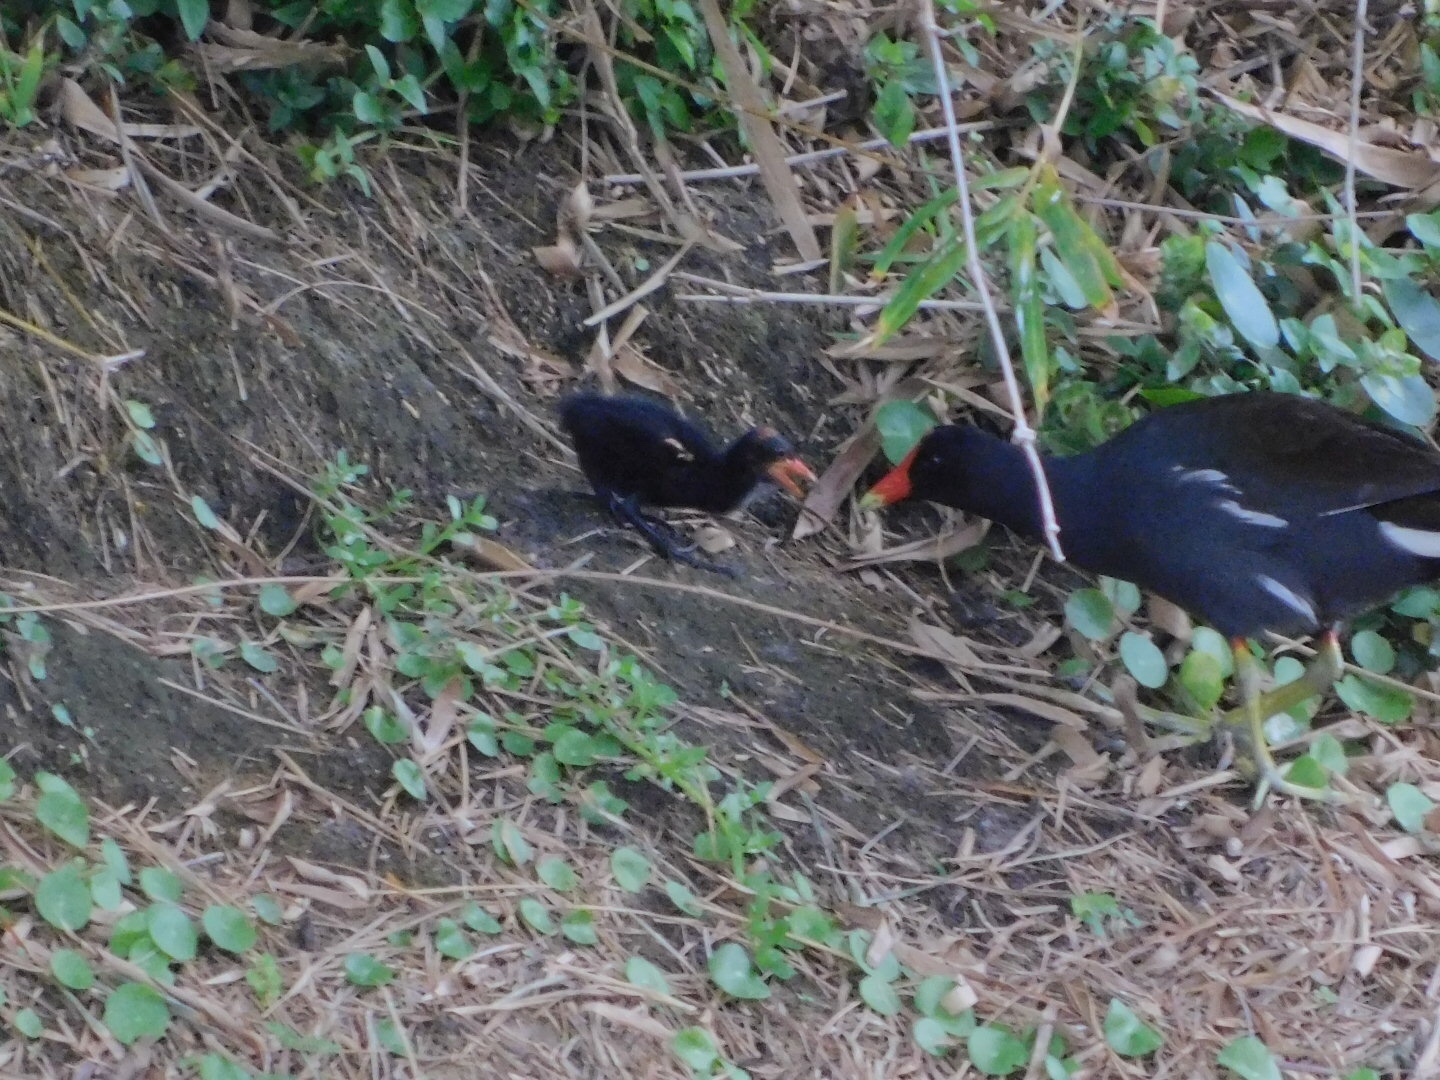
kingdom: Animalia
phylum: Chordata
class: Aves
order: Gruiformes
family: Rallidae
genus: Gallinula
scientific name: Gallinula chloropus
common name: Common moorhen
